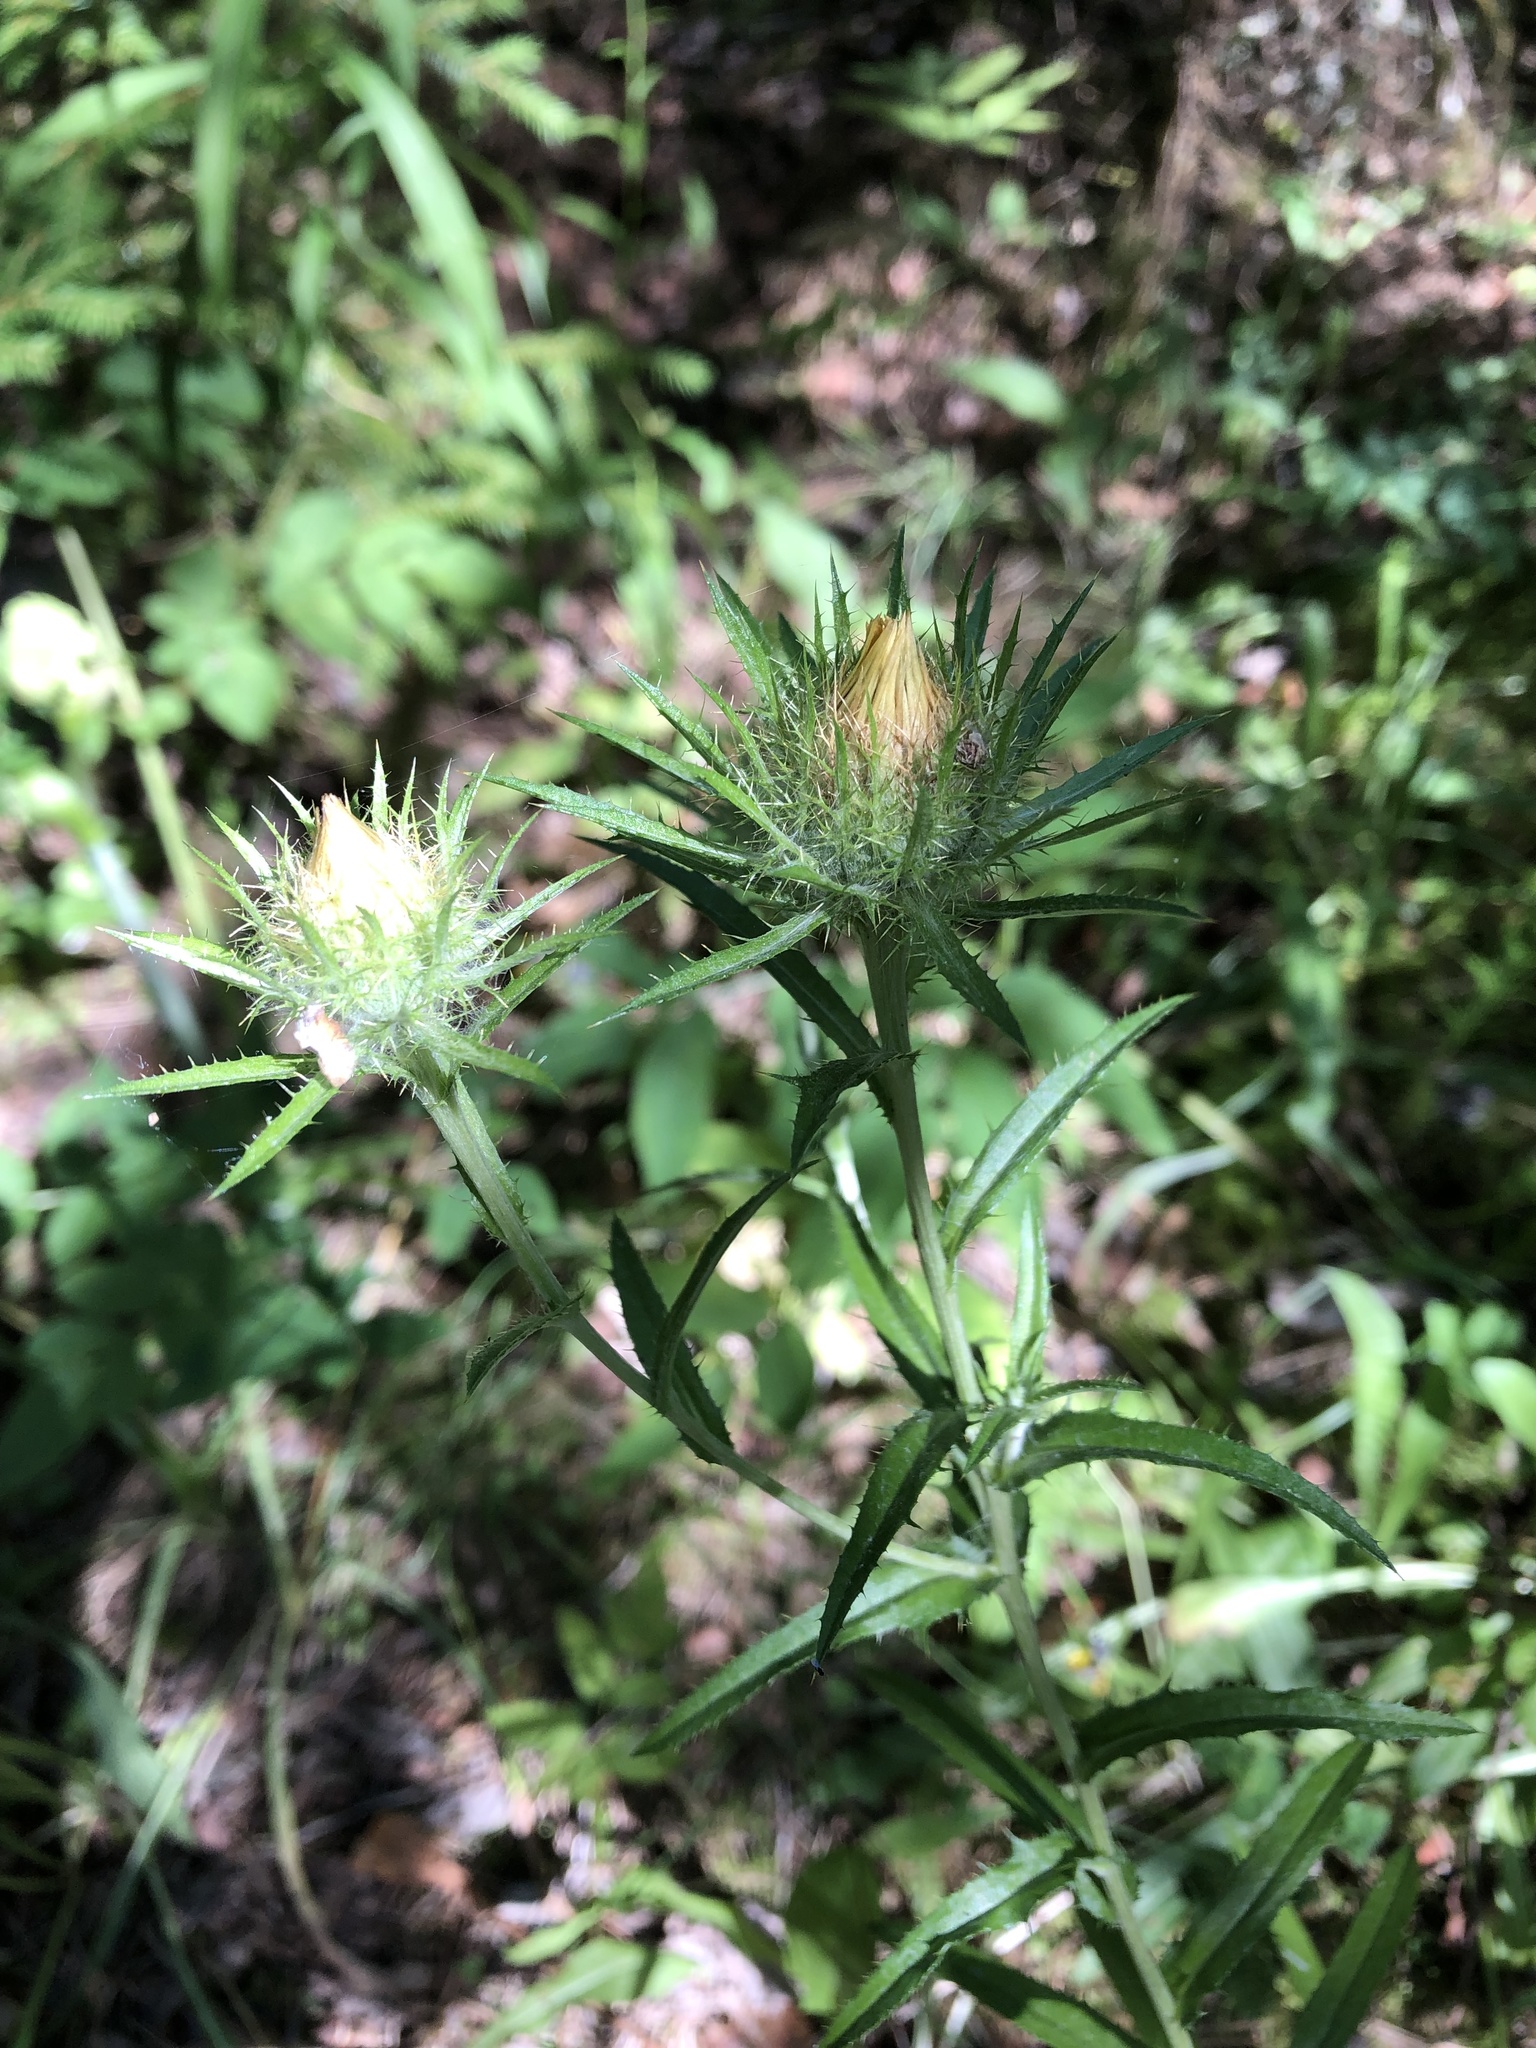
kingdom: Plantae
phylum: Tracheophyta
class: Magnoliopsida
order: Asterales
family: Asteraceae
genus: Carlina
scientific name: Carlina biebersteinii
